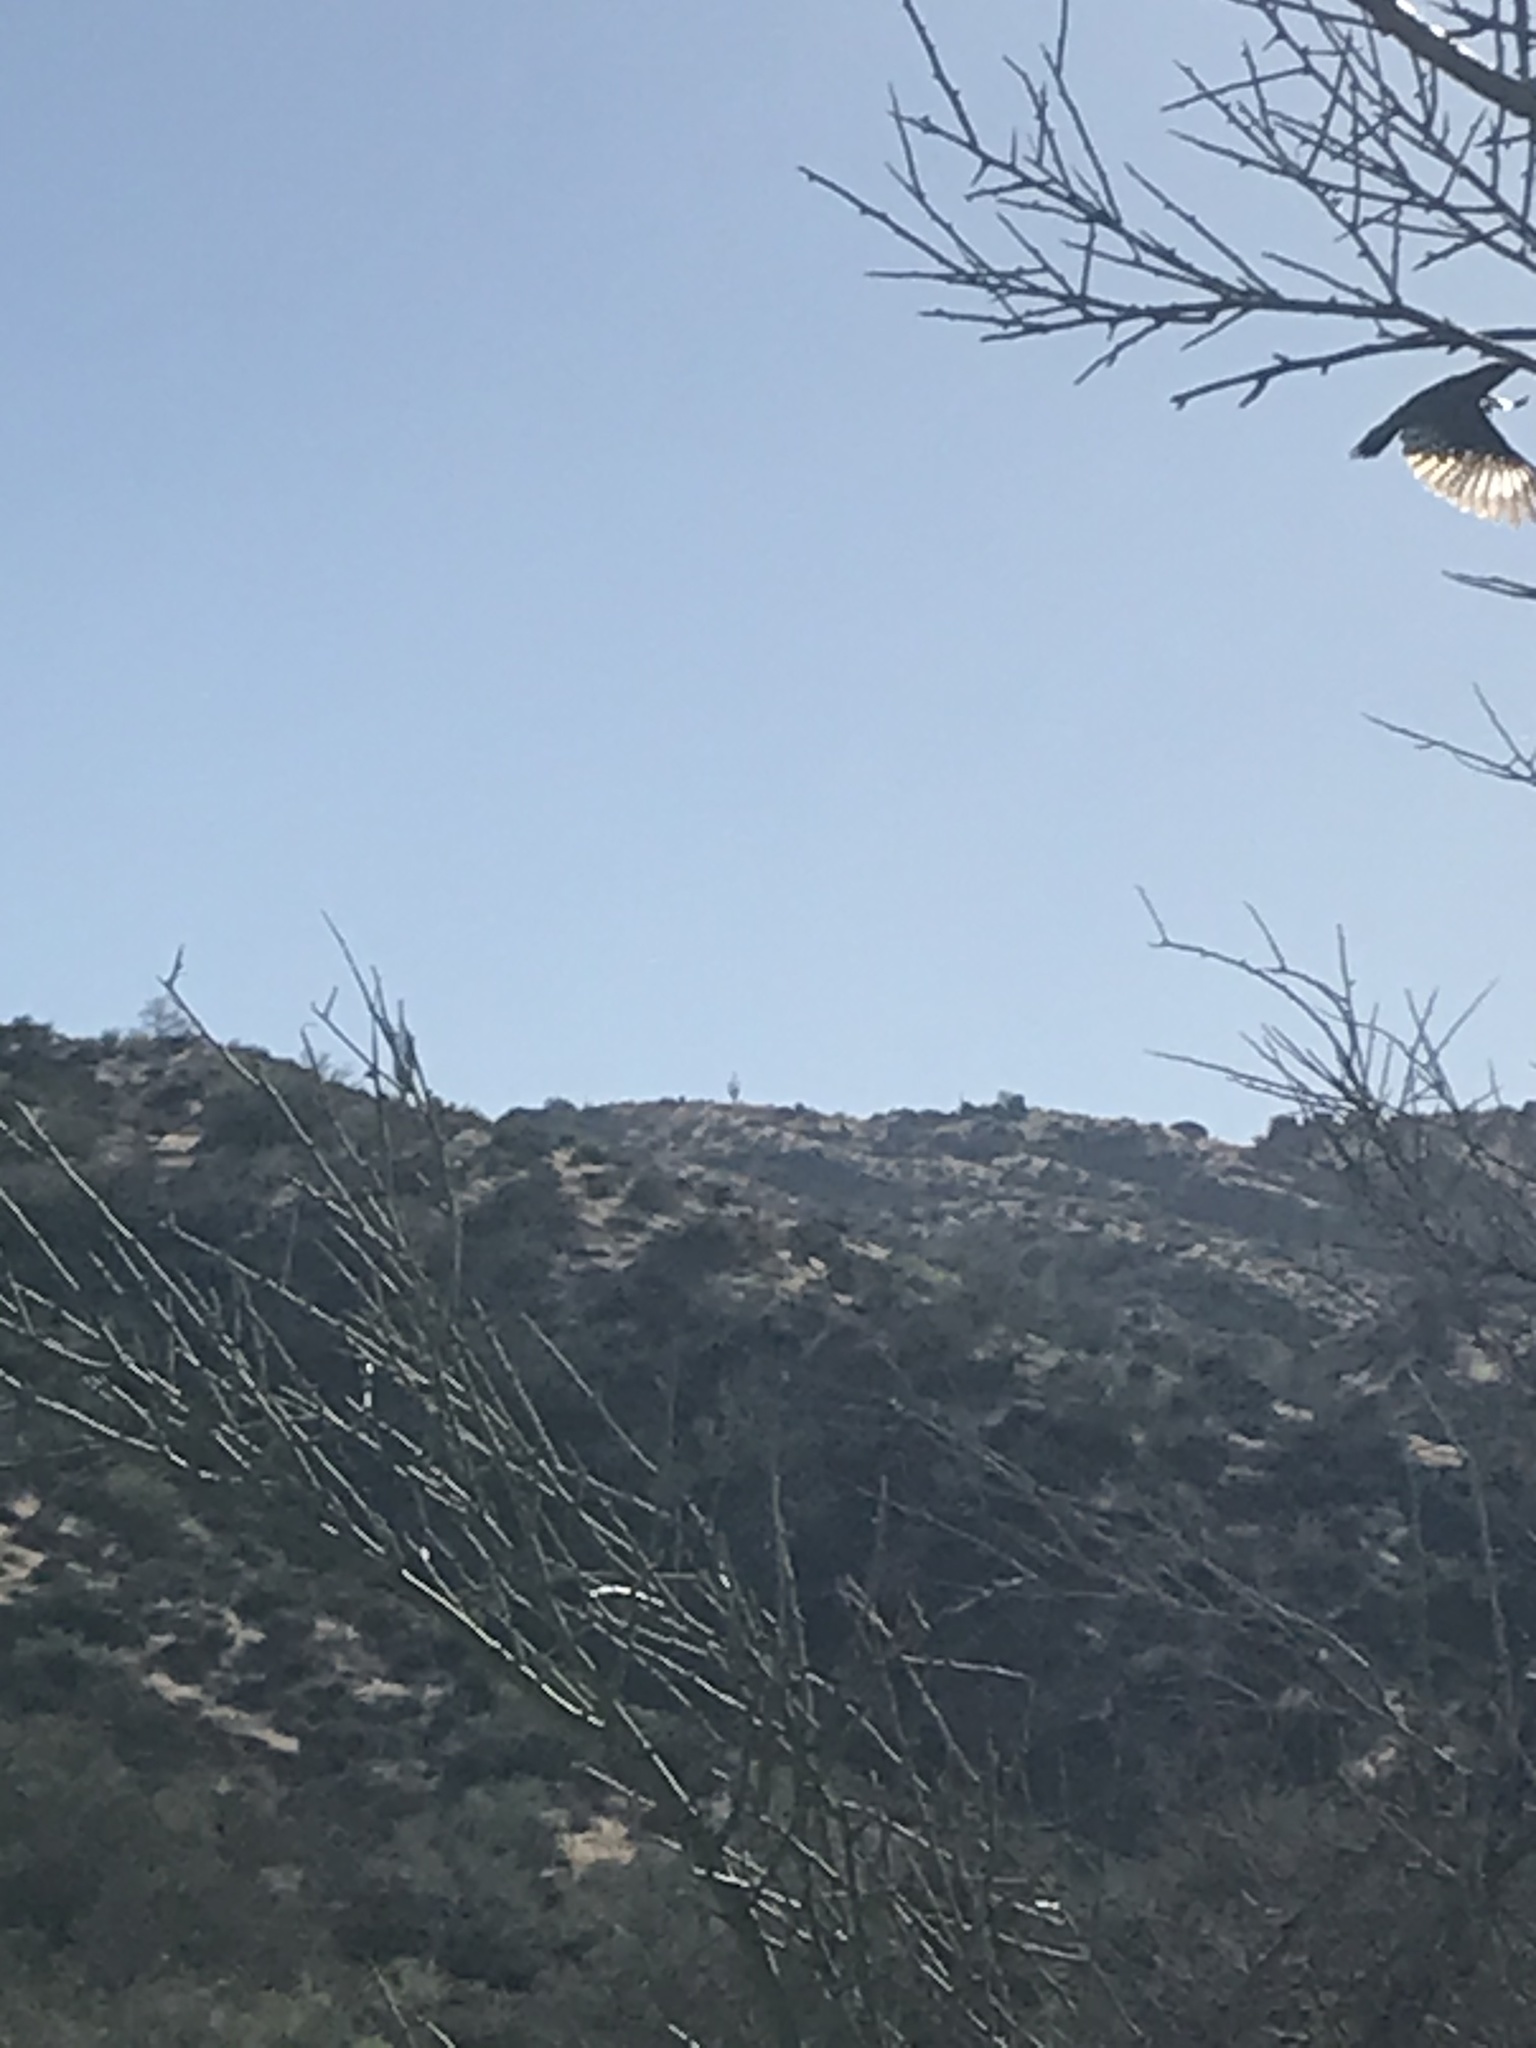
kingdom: Animalia
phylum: Chordata
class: Aves
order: Piciformes
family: Picidae
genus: Melanerpes
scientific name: Melanerpes uropygialis
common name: Gila woodpecker
